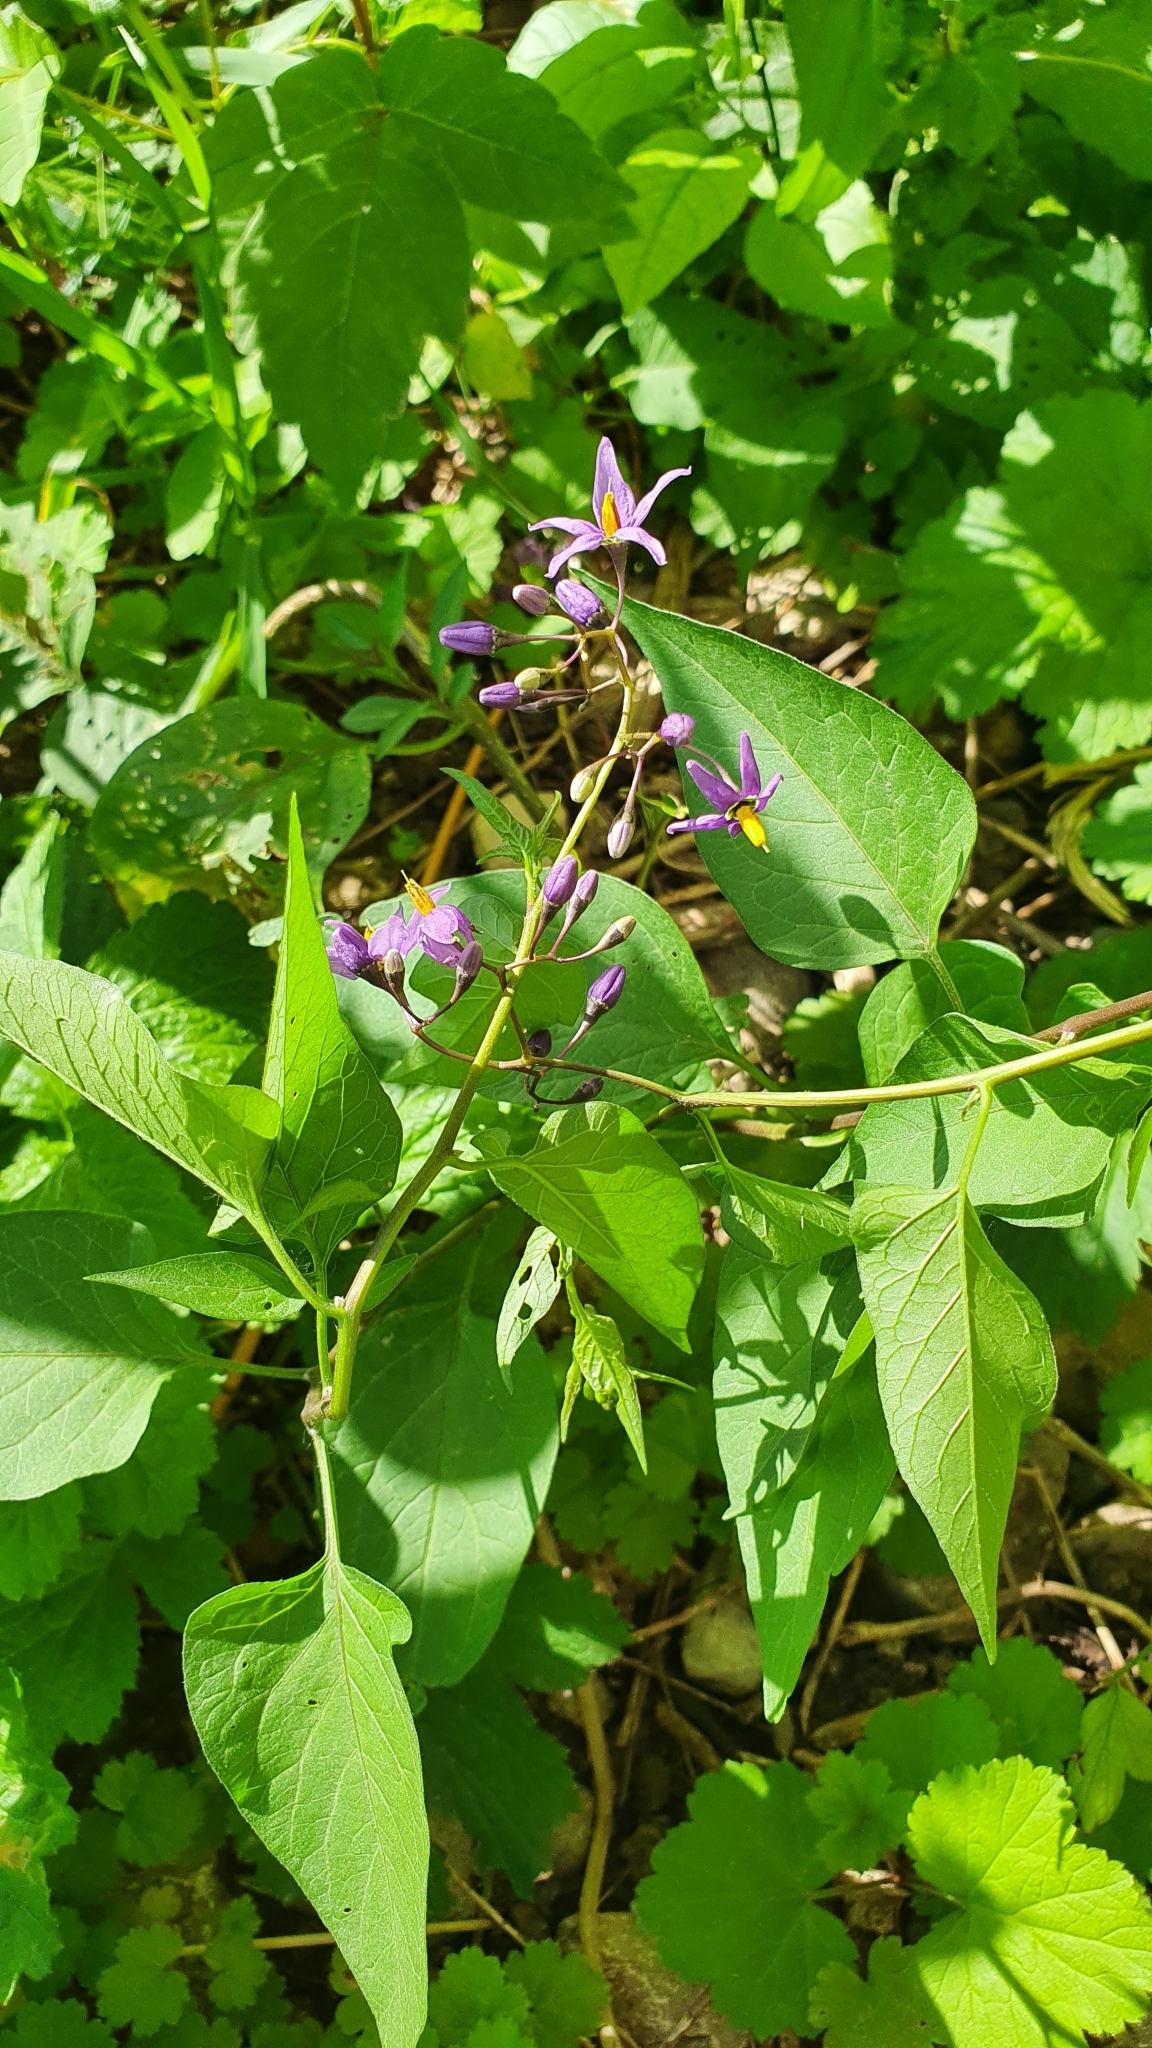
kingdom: Plantae
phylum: Tracheophyta
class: Magnoliopsida
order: Solanales
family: Solanaceae
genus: Solanum
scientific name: Solanum dulcamara
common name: Climbing nightshade
